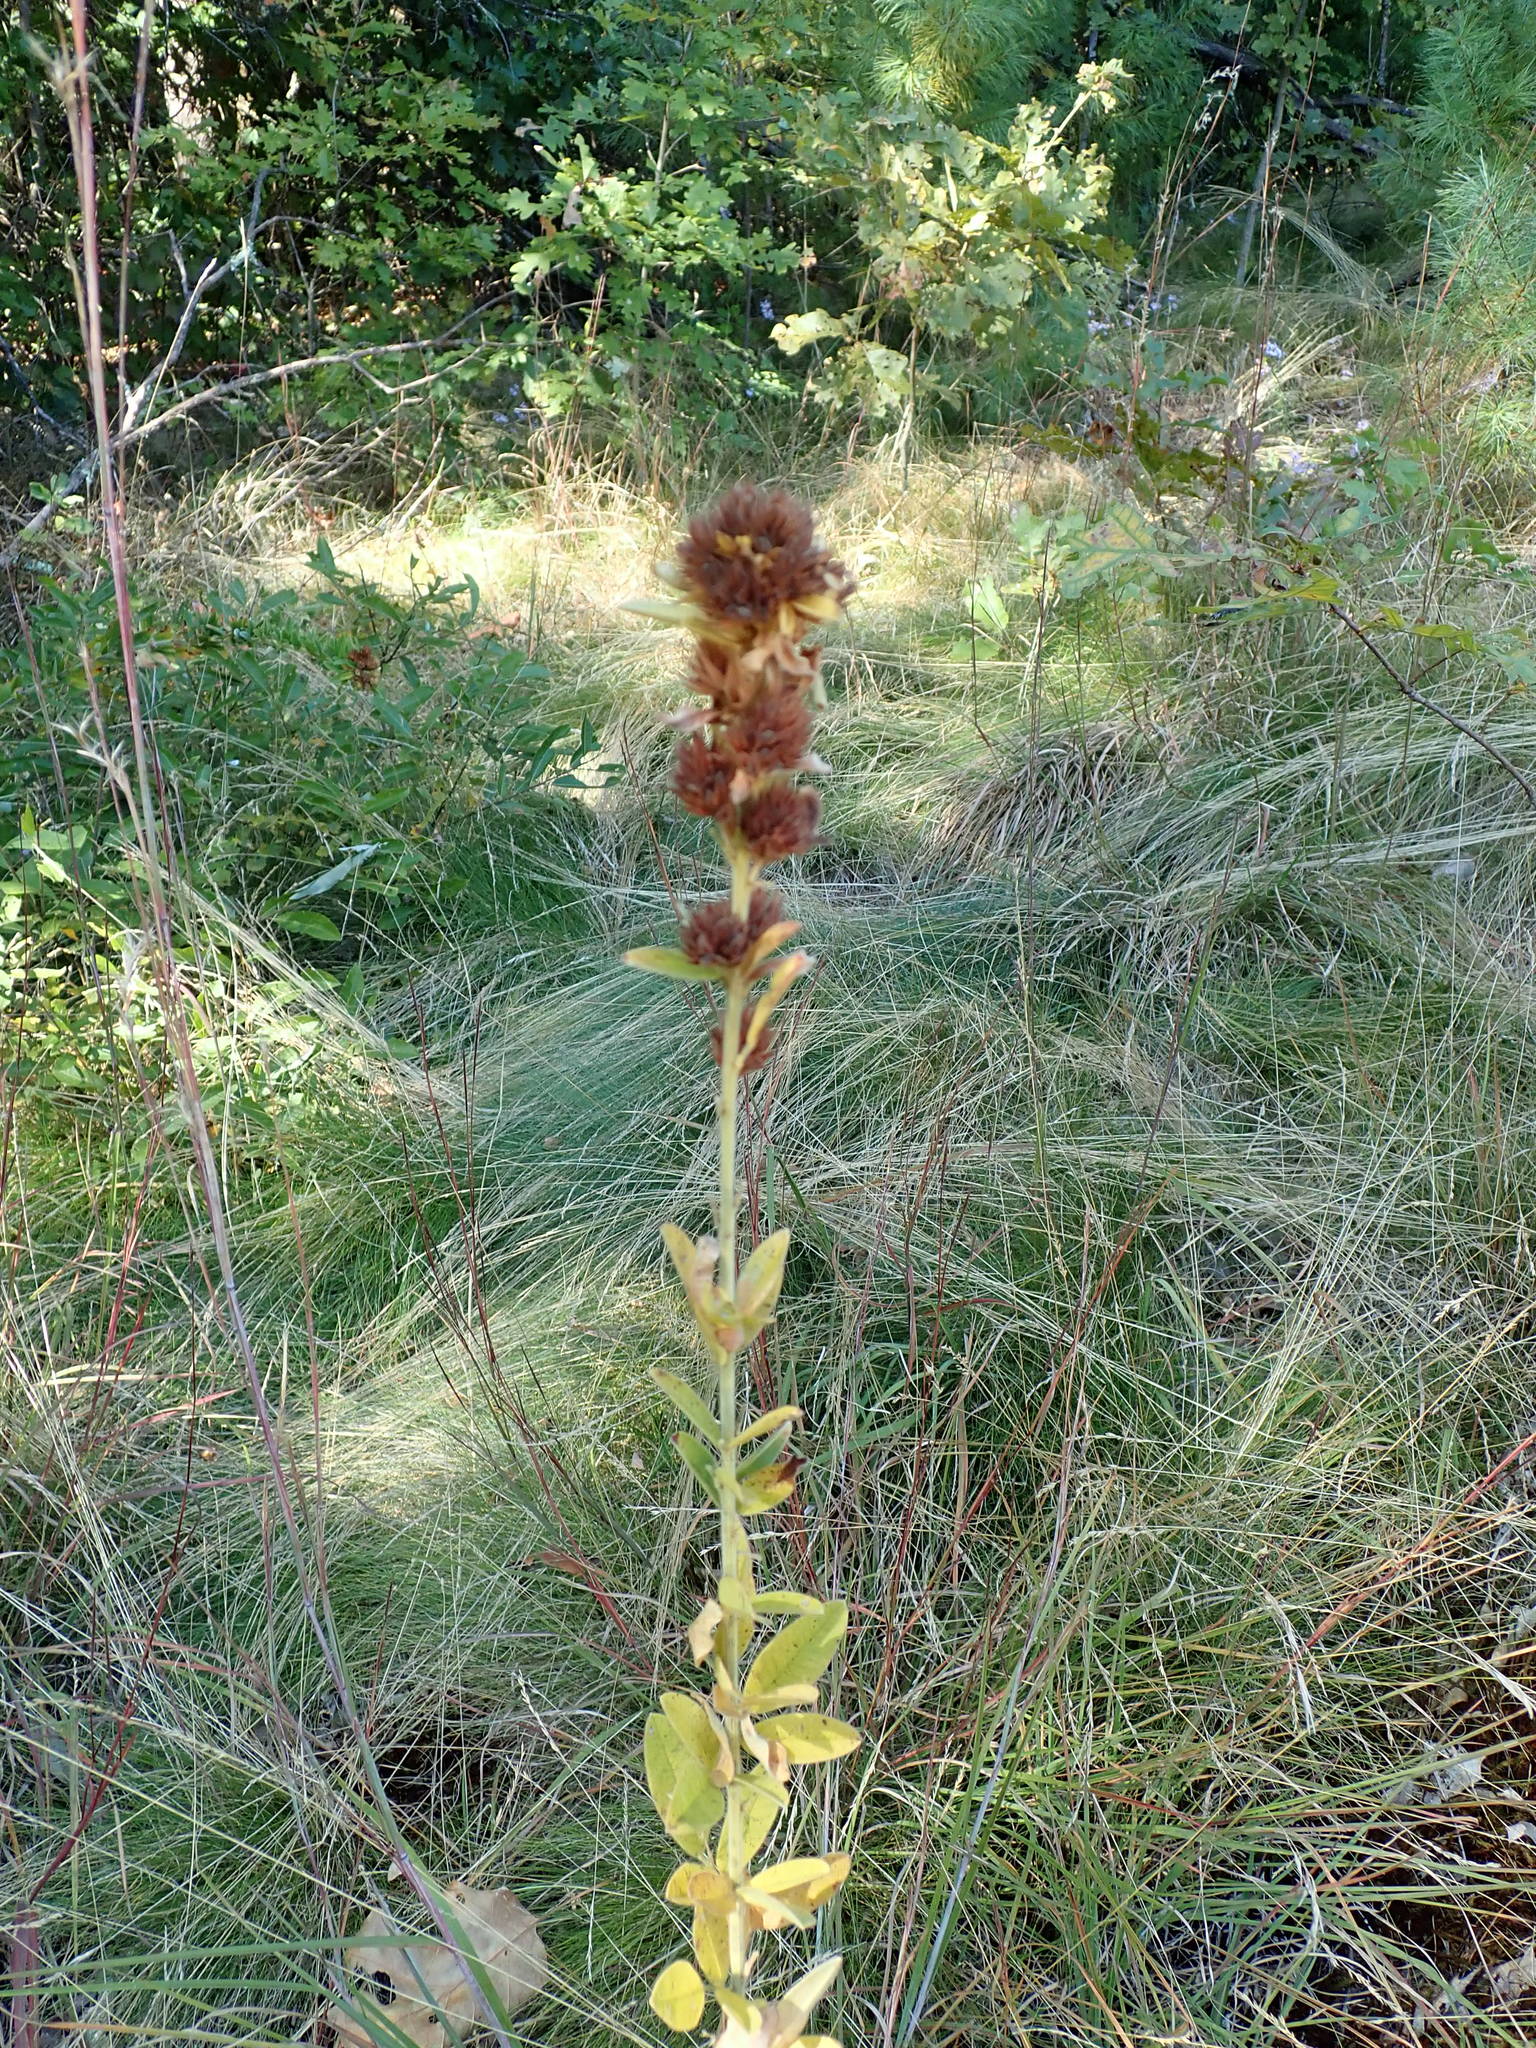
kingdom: Plantae
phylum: Tracheophyta
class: Magnoliopsida
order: Fabales
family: Fabaceae
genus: Lespedeza
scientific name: Lespedeza capitata
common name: Dusty clover
